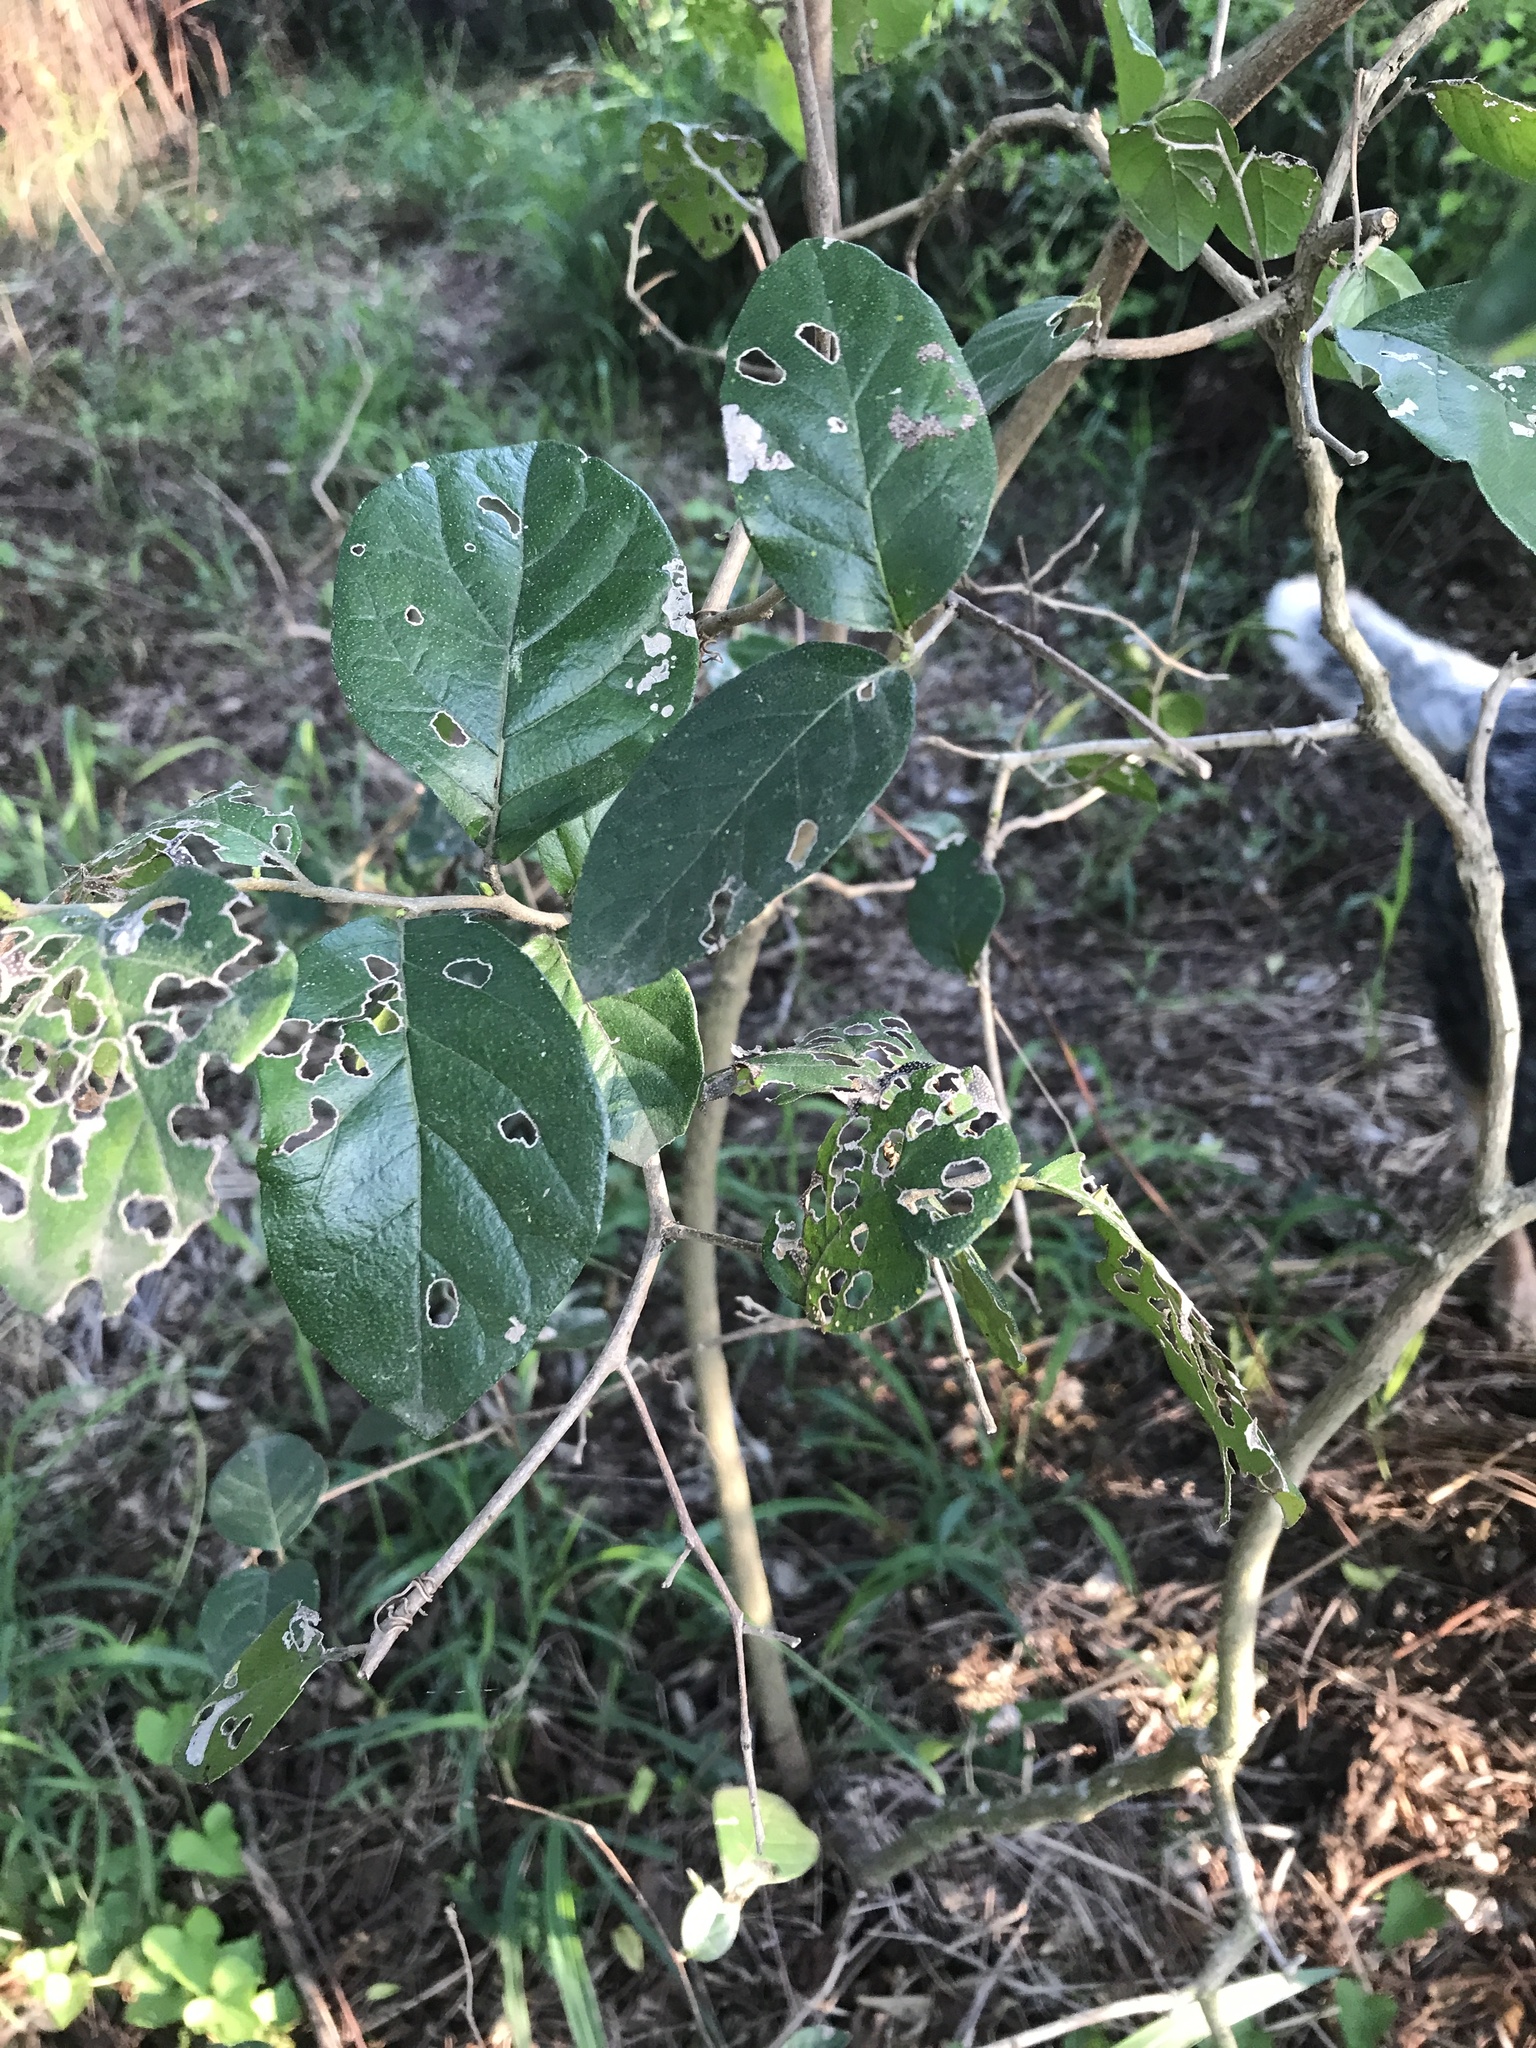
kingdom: Plantae
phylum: Tracheophyta
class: Magnoliopsida
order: Boraginales
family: Ehretiaceae
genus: Ehretia
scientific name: Ehretia anacua
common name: Sugarberry
